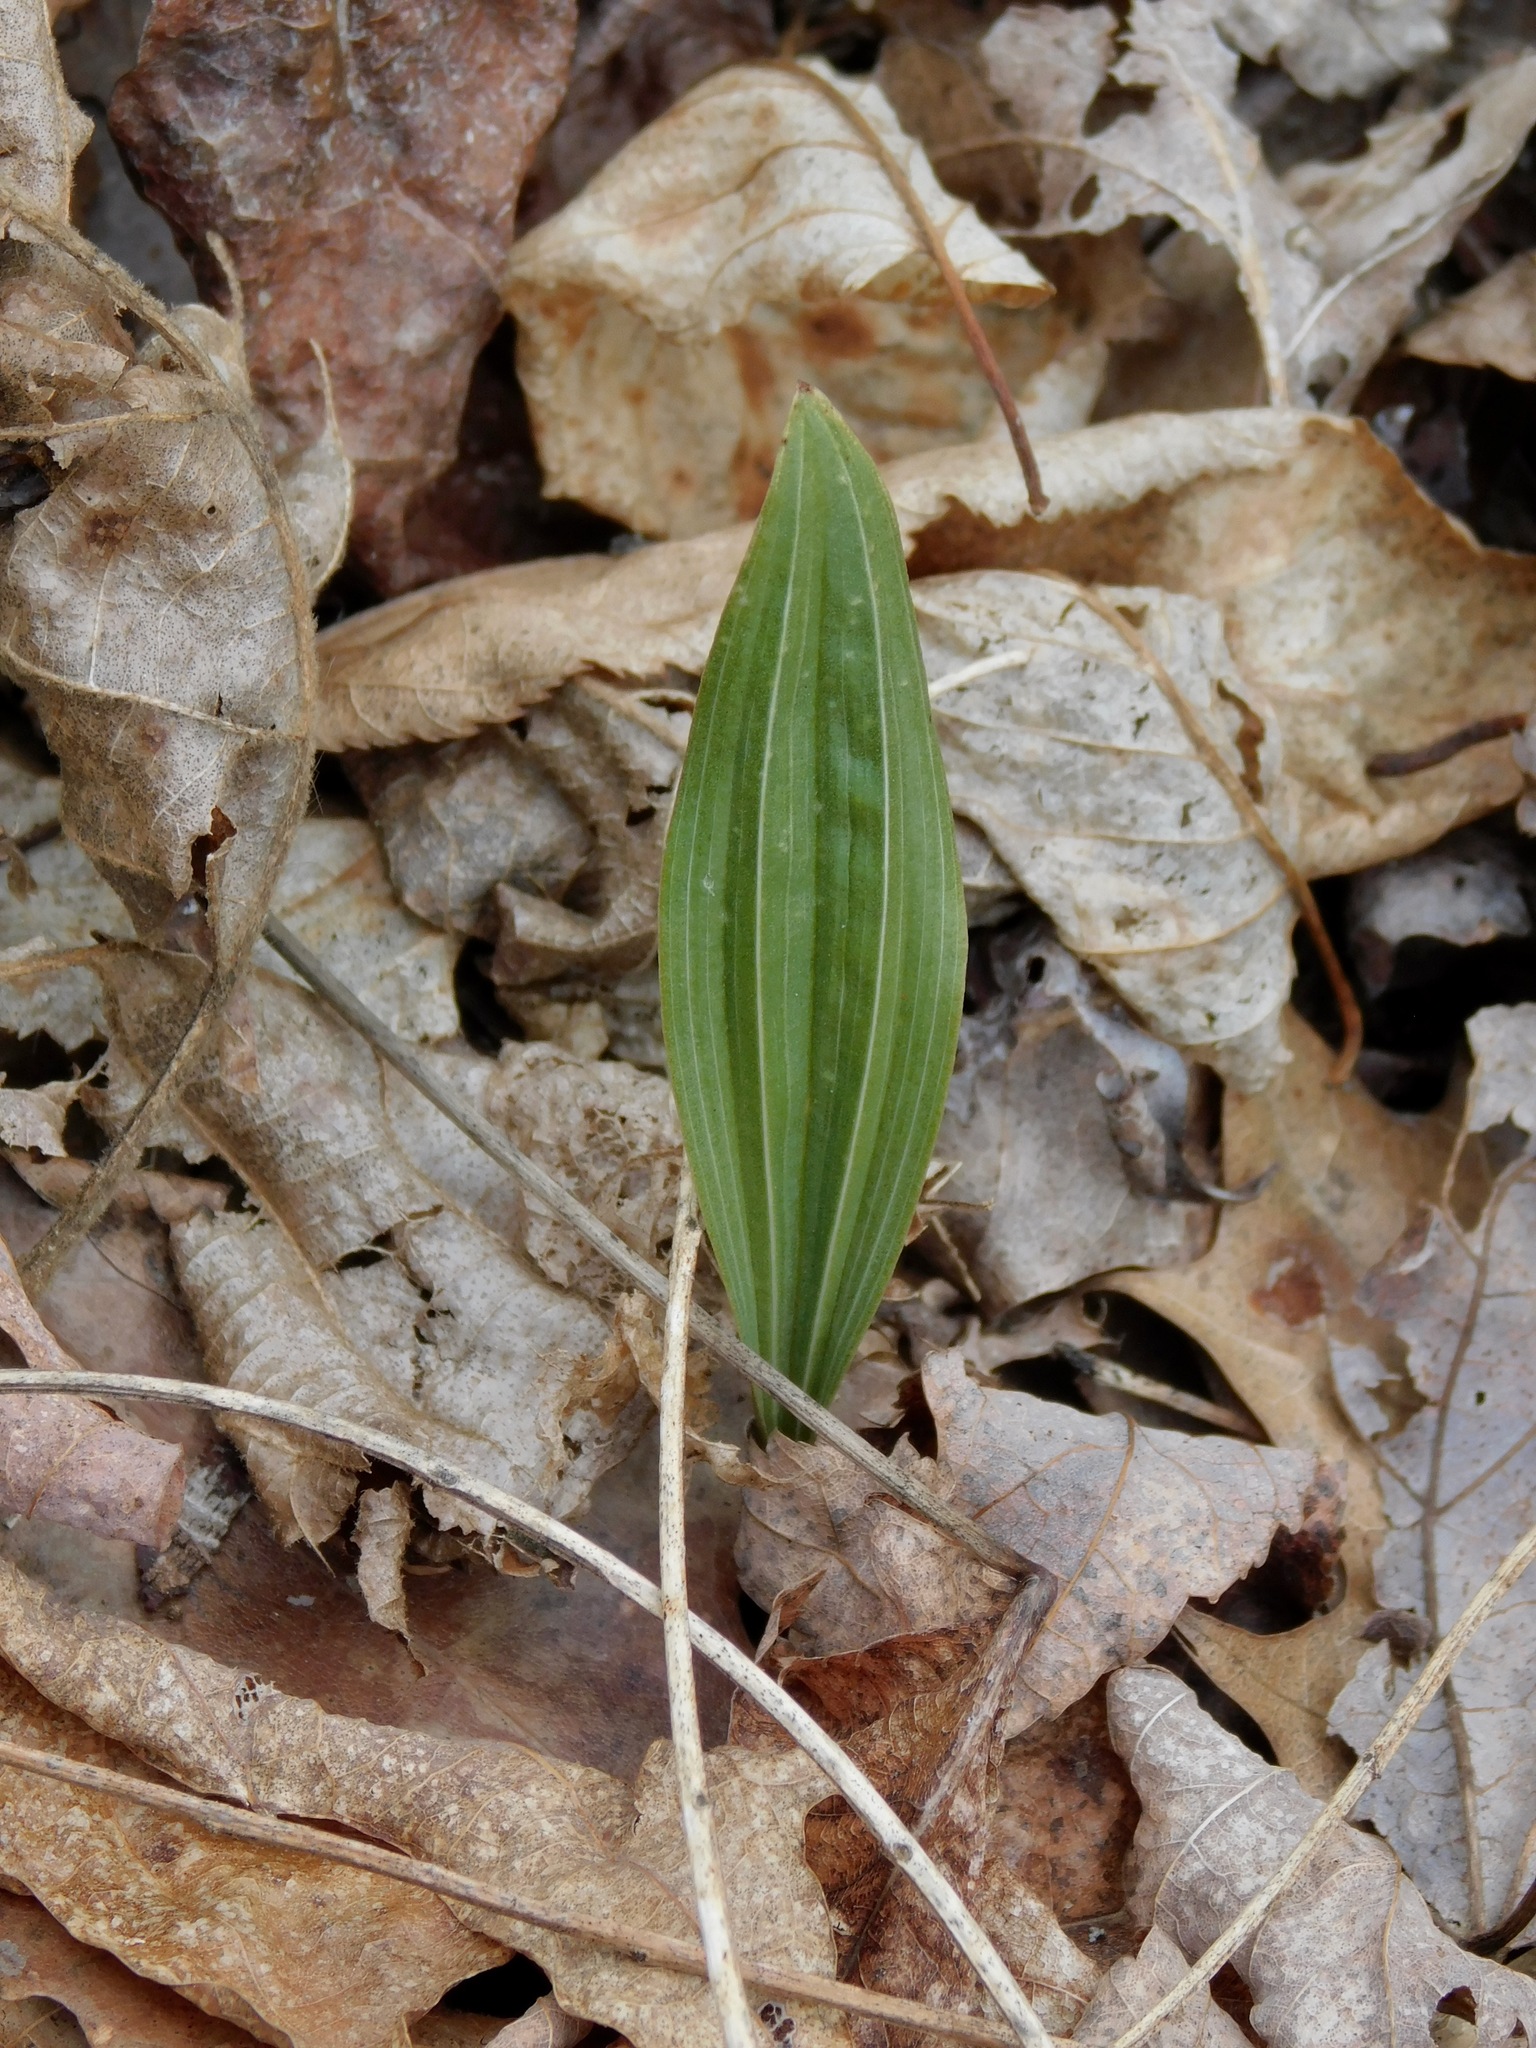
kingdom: Plantae
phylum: Tracheophyta
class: Liliopsida
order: Asparagales
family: Orchidaceae
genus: Aplectrum
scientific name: Aplectrum hyemale
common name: Adam-and-eve
